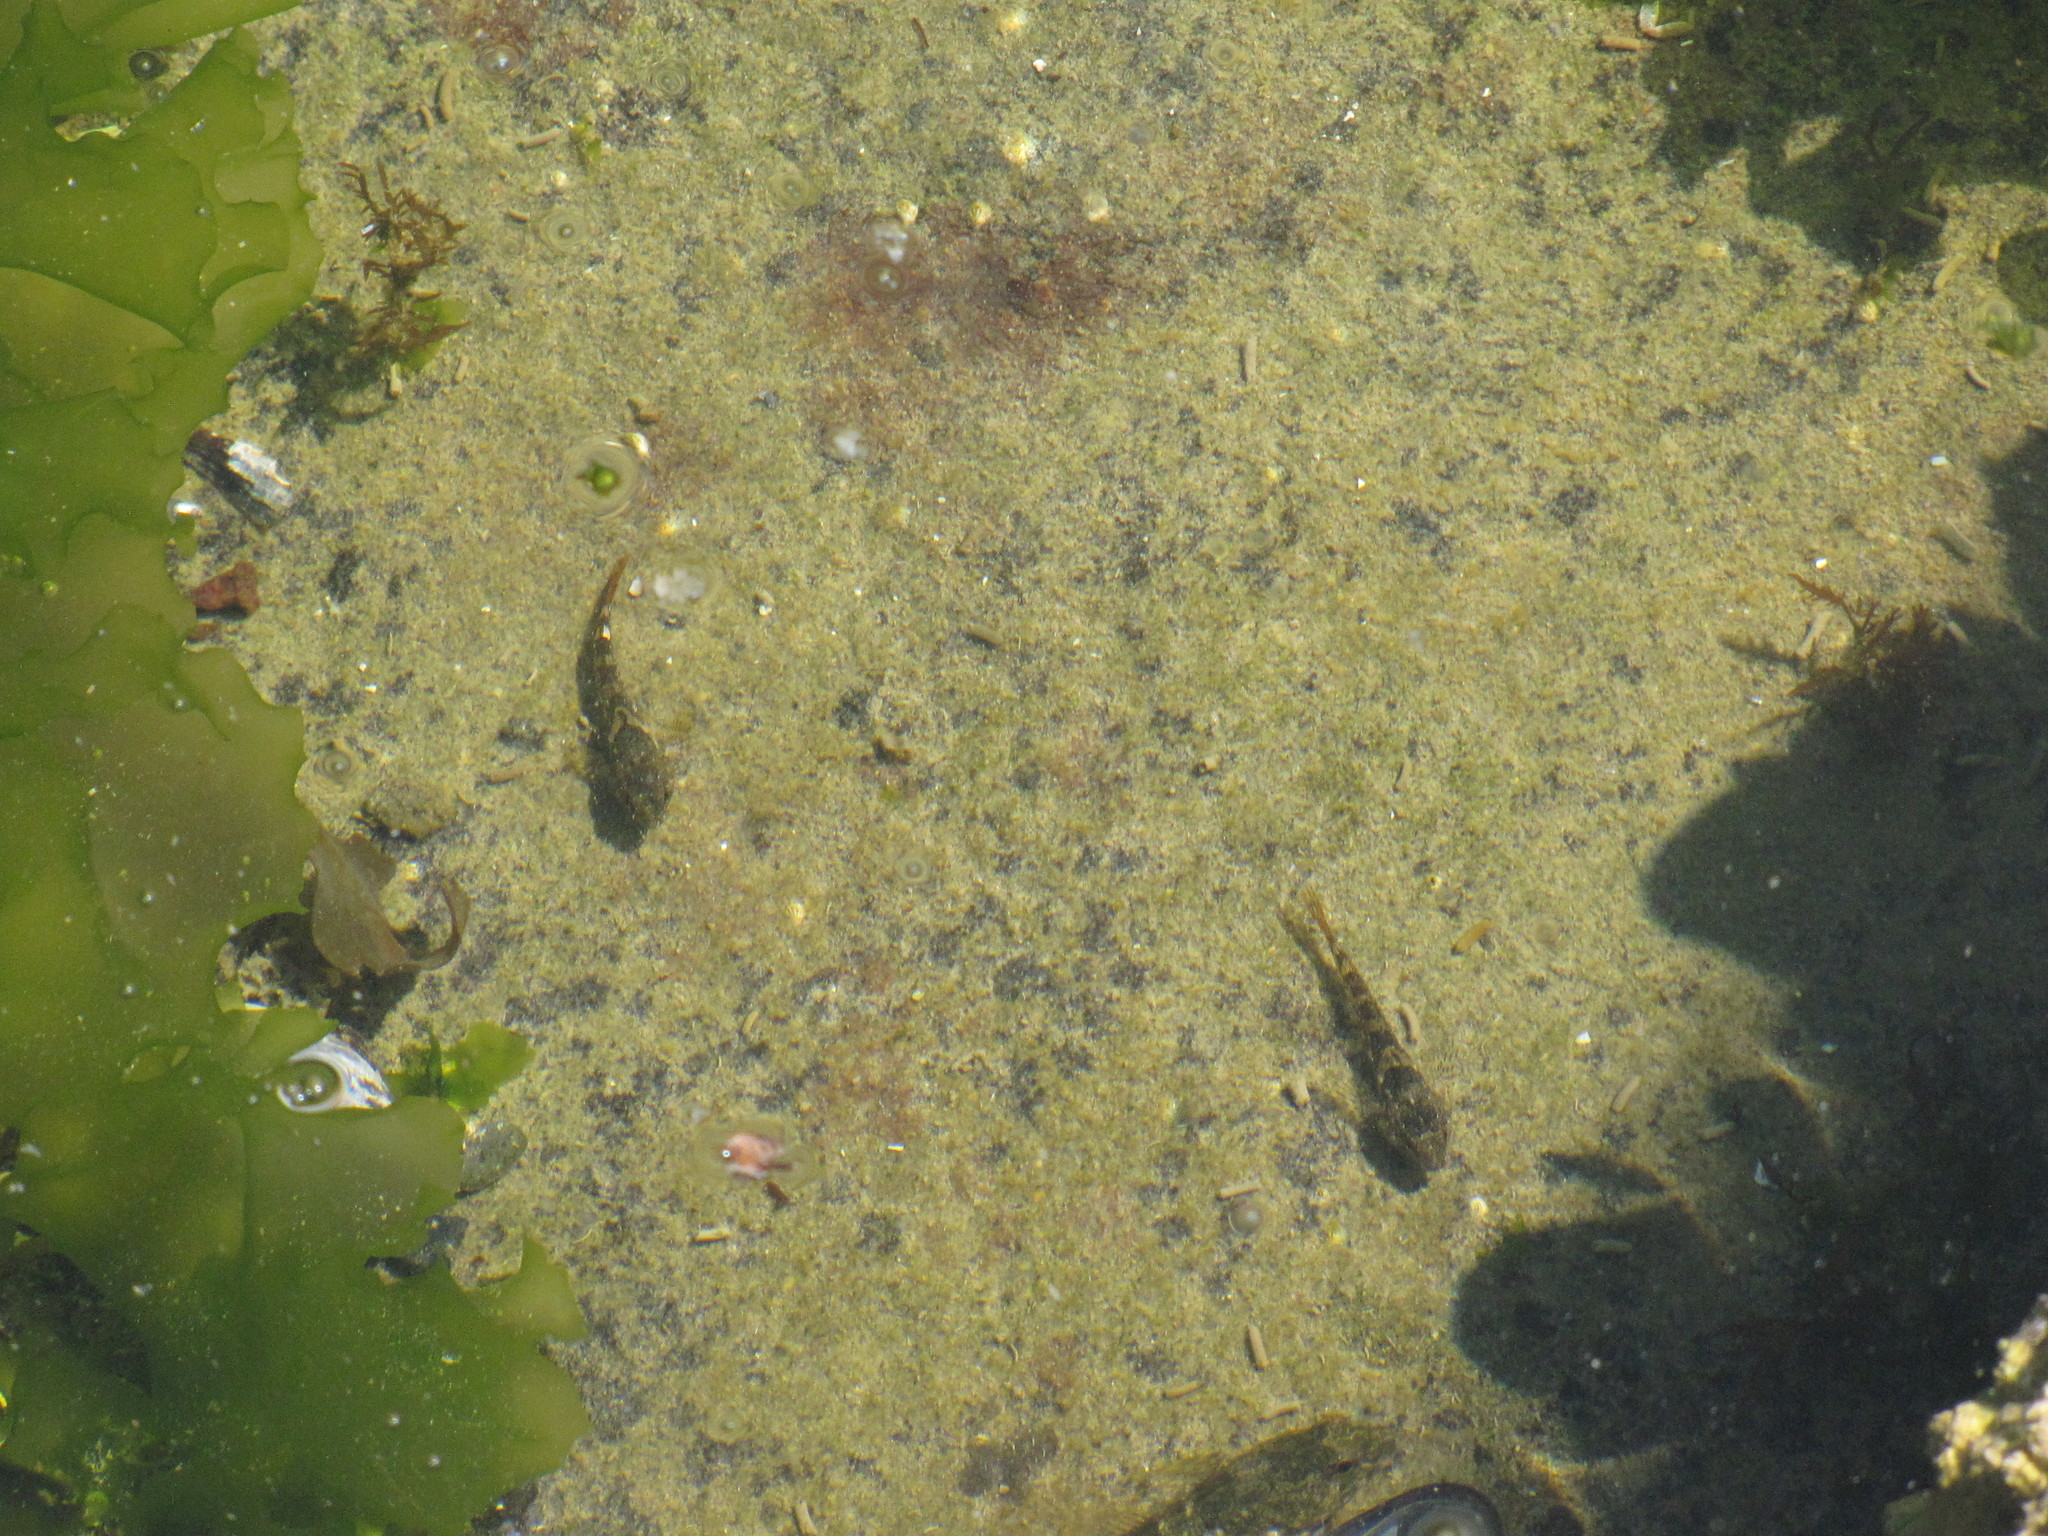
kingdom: Animalia
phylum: Chordata
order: Scorpaeniformes
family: Cottidae
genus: Oligocottus
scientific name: Oligocottus maculosus
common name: Tidepool sculpin
